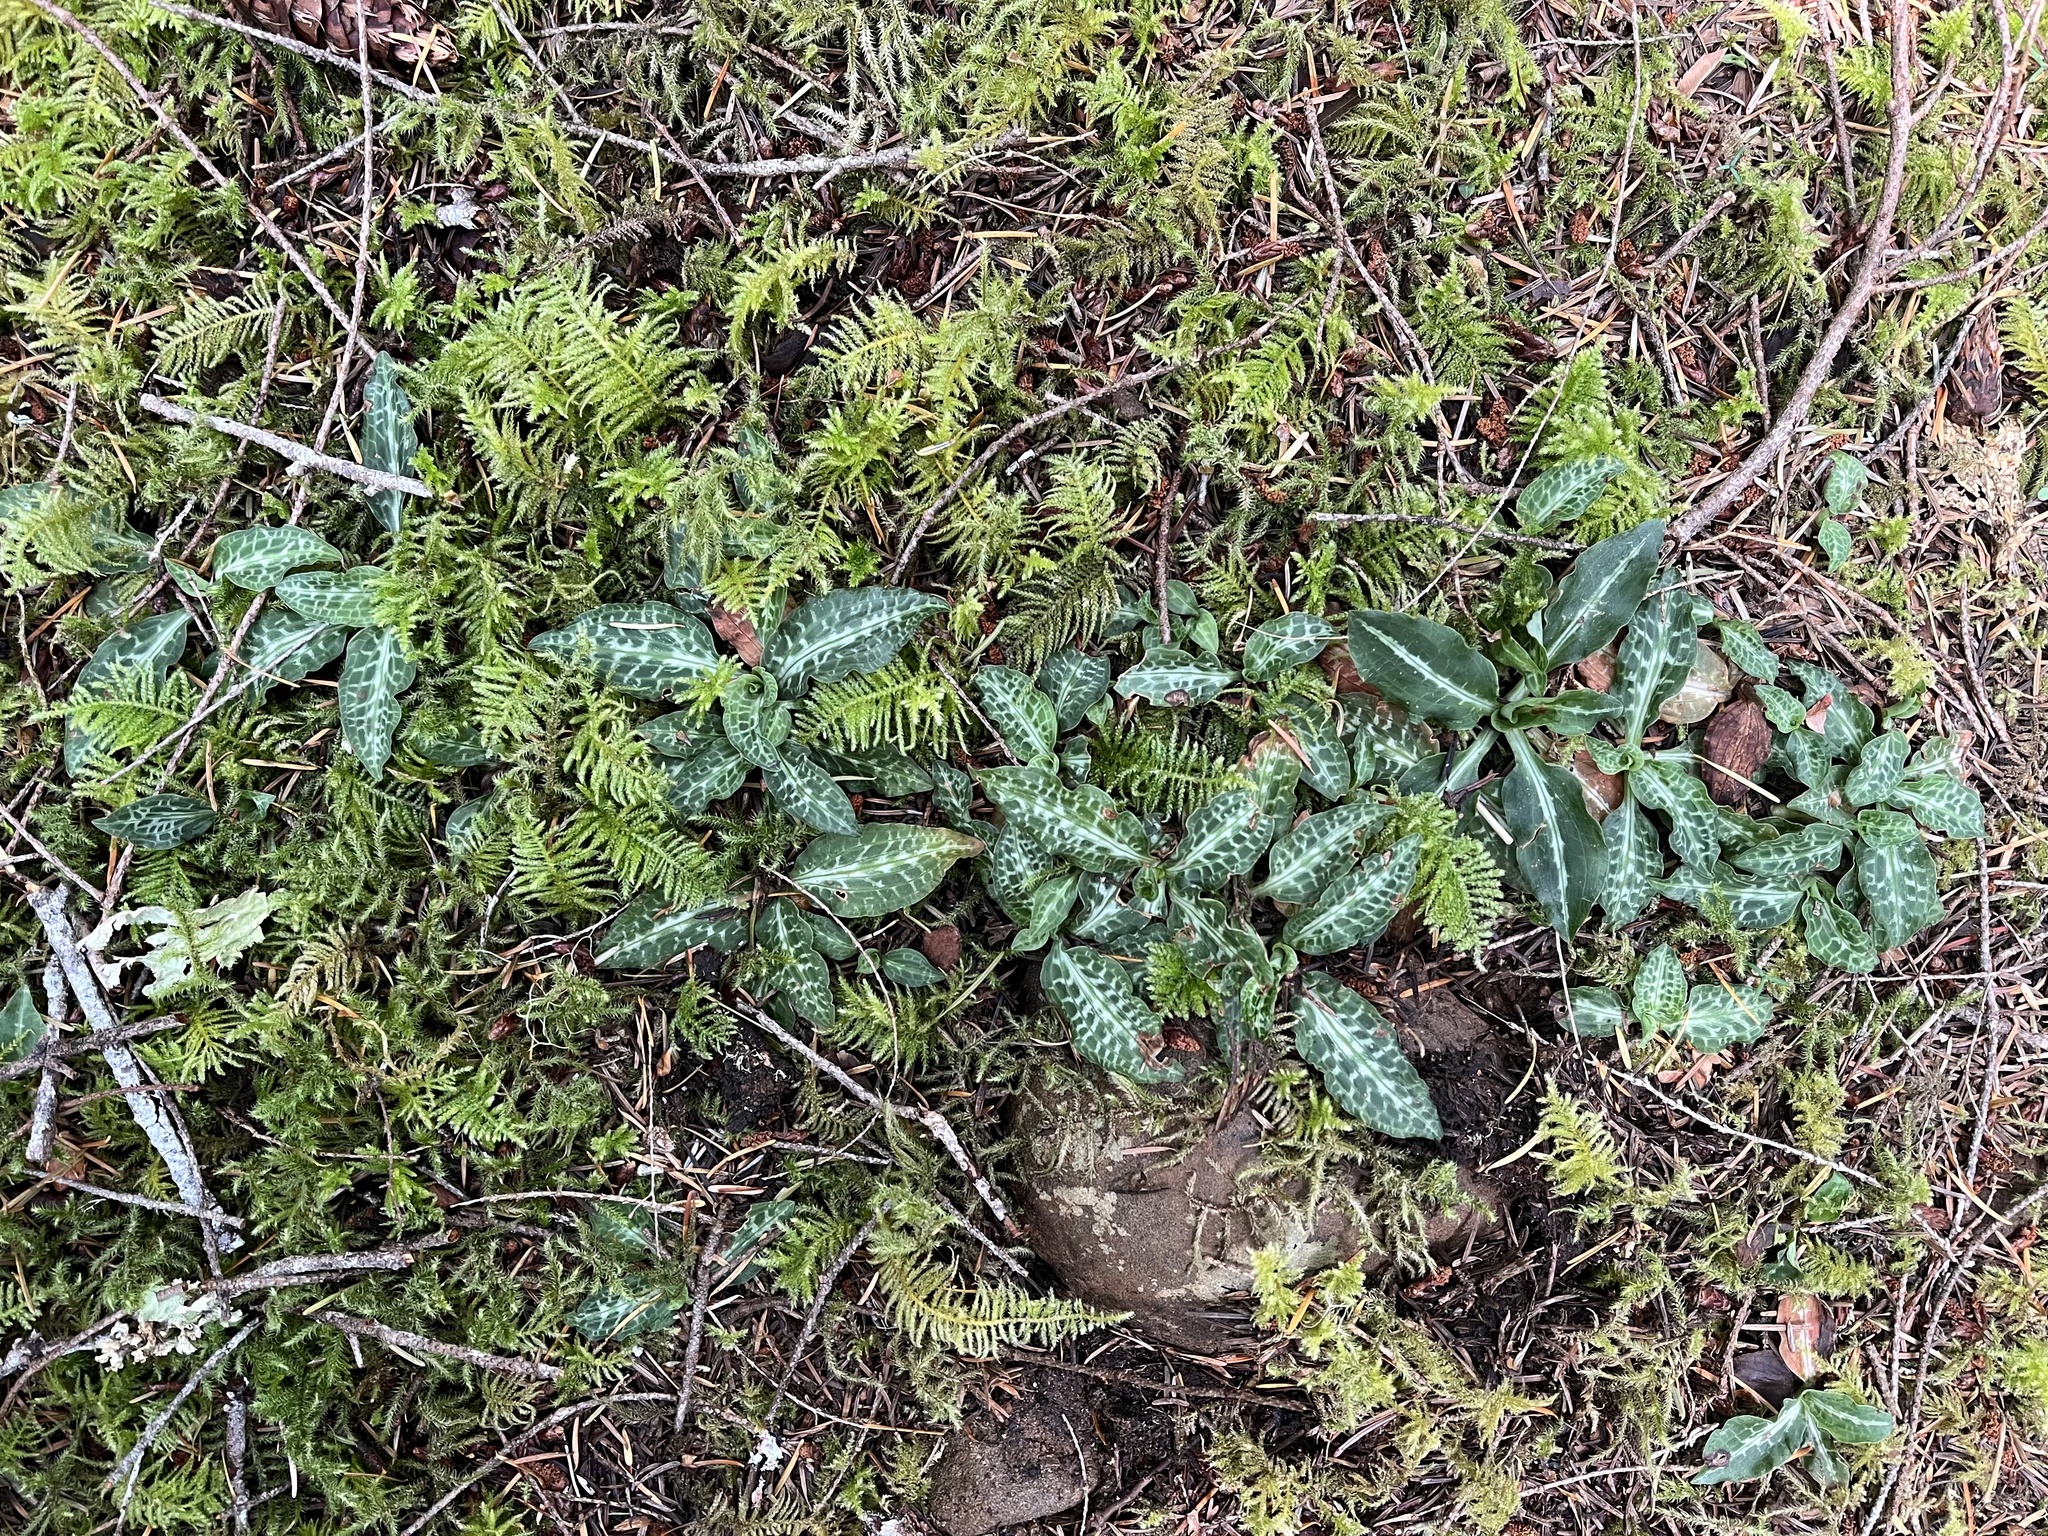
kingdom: Plantae
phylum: Tracheophyta
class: Liliopsida
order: Asparagales
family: Orchidaceae
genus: Goodyera
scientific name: Goodyera oblongifolia
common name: Giant rattlesnake-plantain
